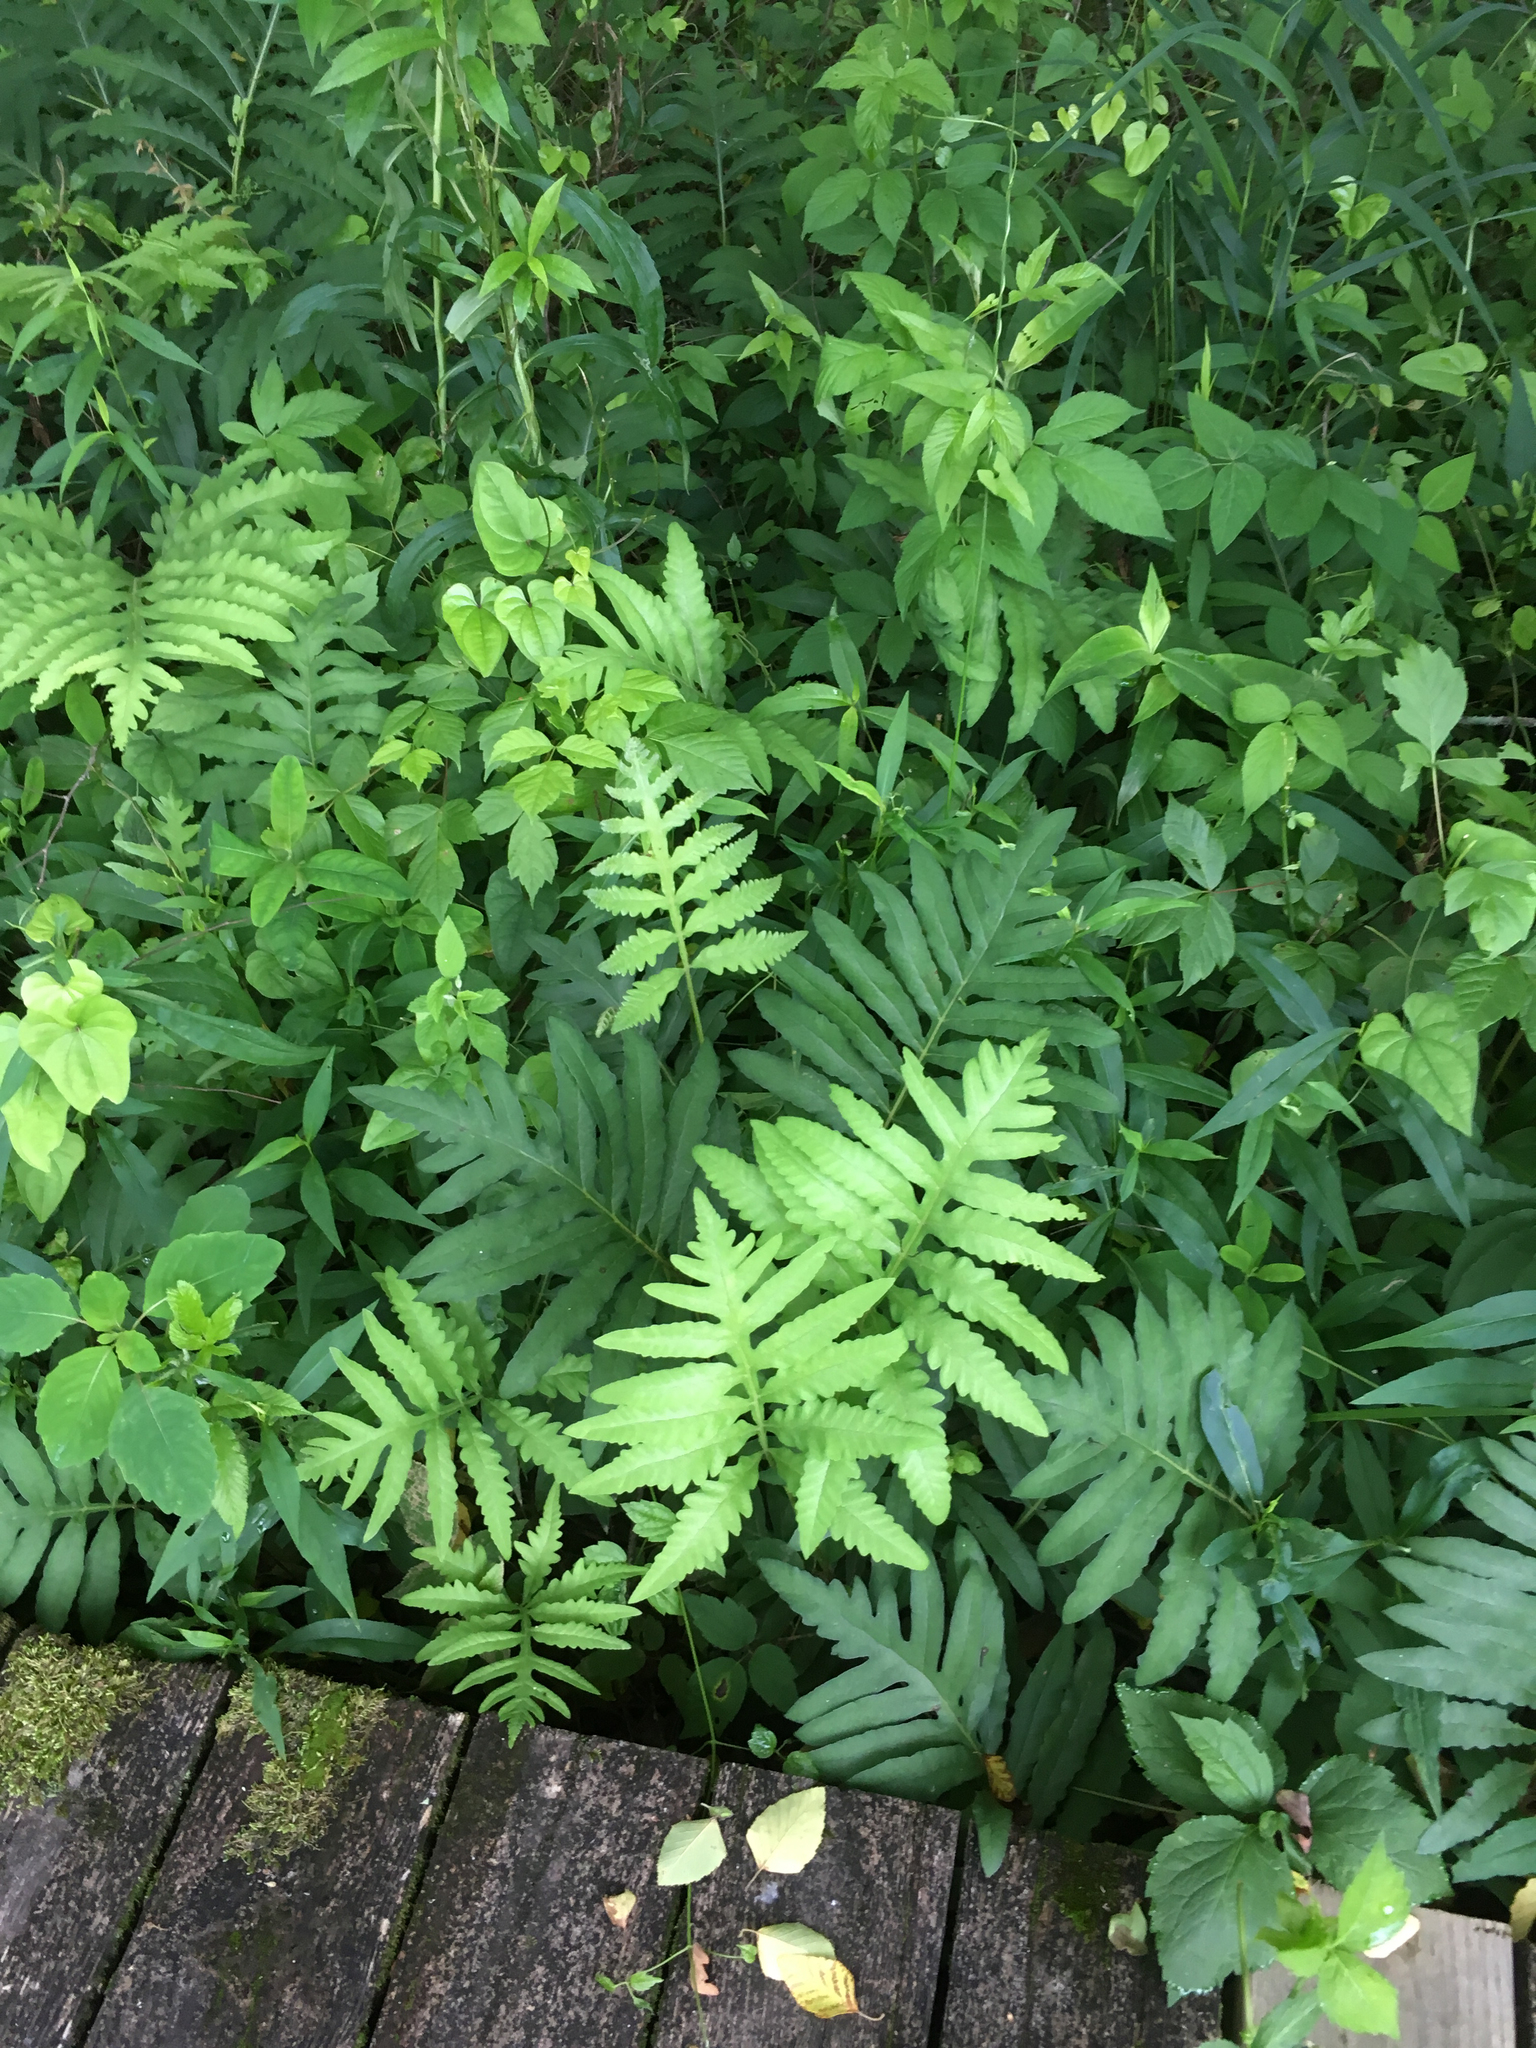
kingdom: Plantae
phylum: Tracheophyta
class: Polypodiopsida
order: Polypodiales
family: Onocleaceae
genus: Onoclea
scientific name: Onoclea sensibilis
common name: Sensitive fern
